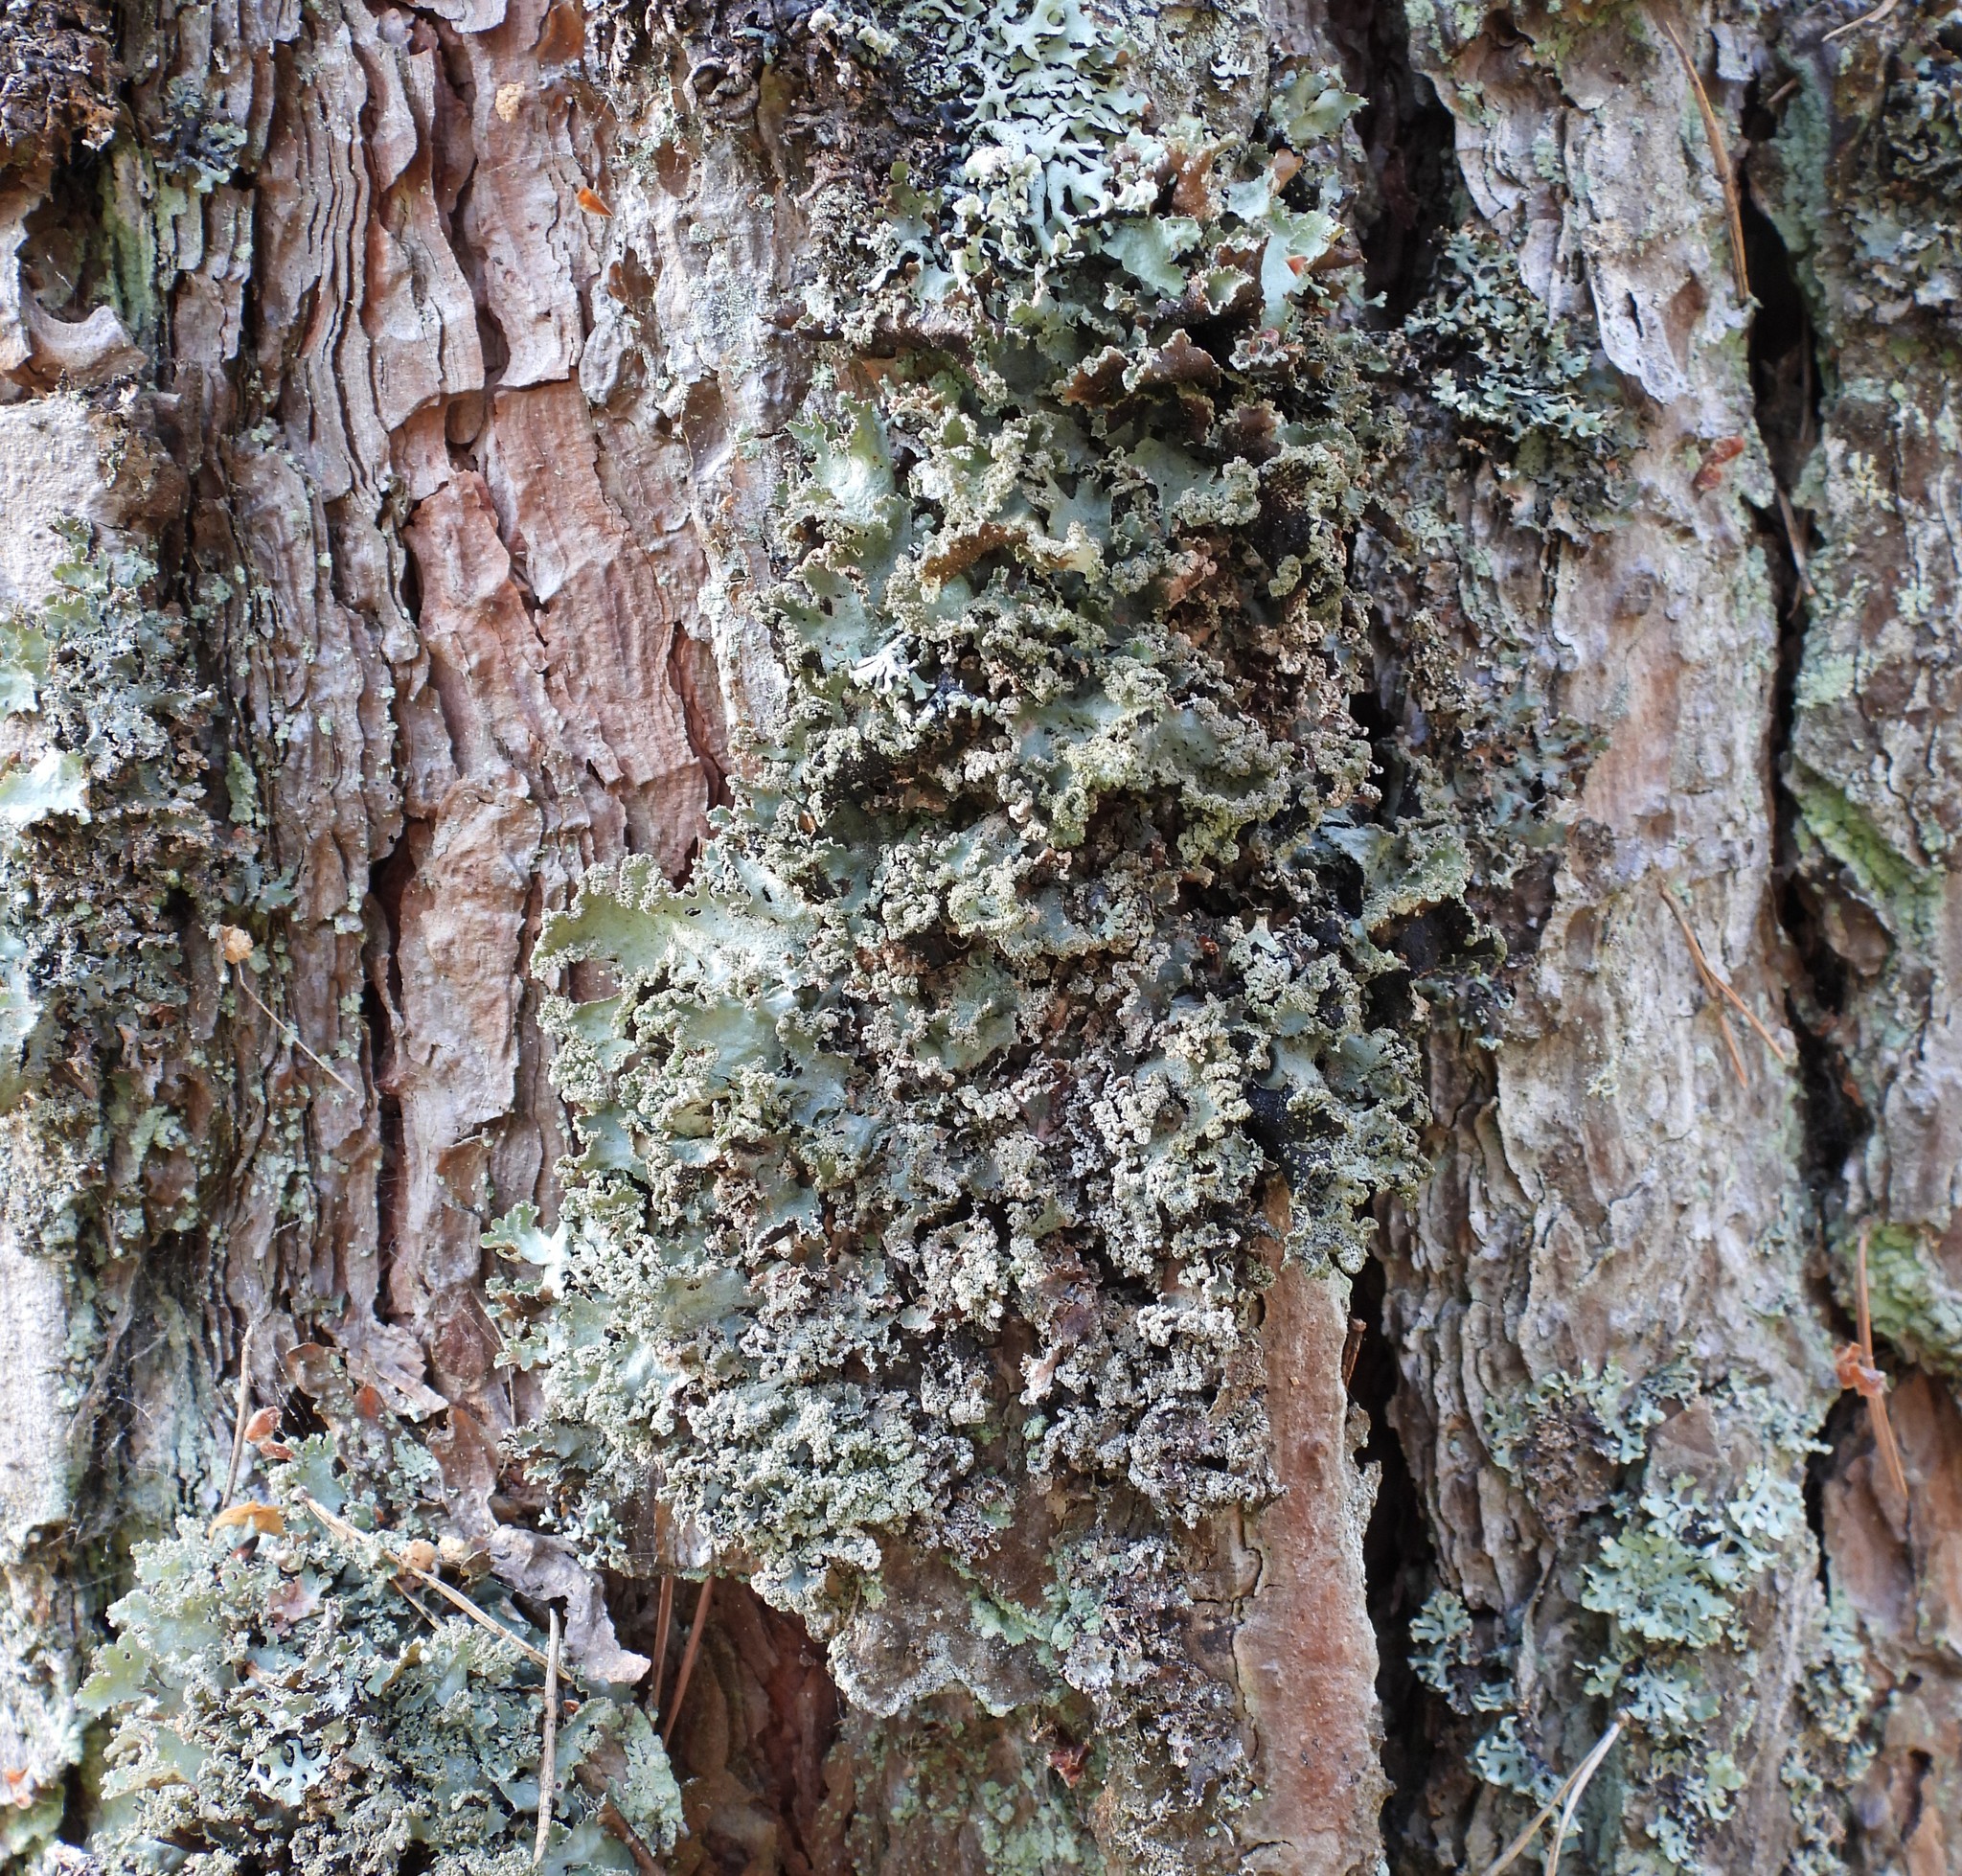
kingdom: Fungi
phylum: Ascomycota
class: Lecanoromycetes
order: Lecanorales
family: Parmeliaceae
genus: Platismatia
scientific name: Platismatia glauca
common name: Varied rag lichen
